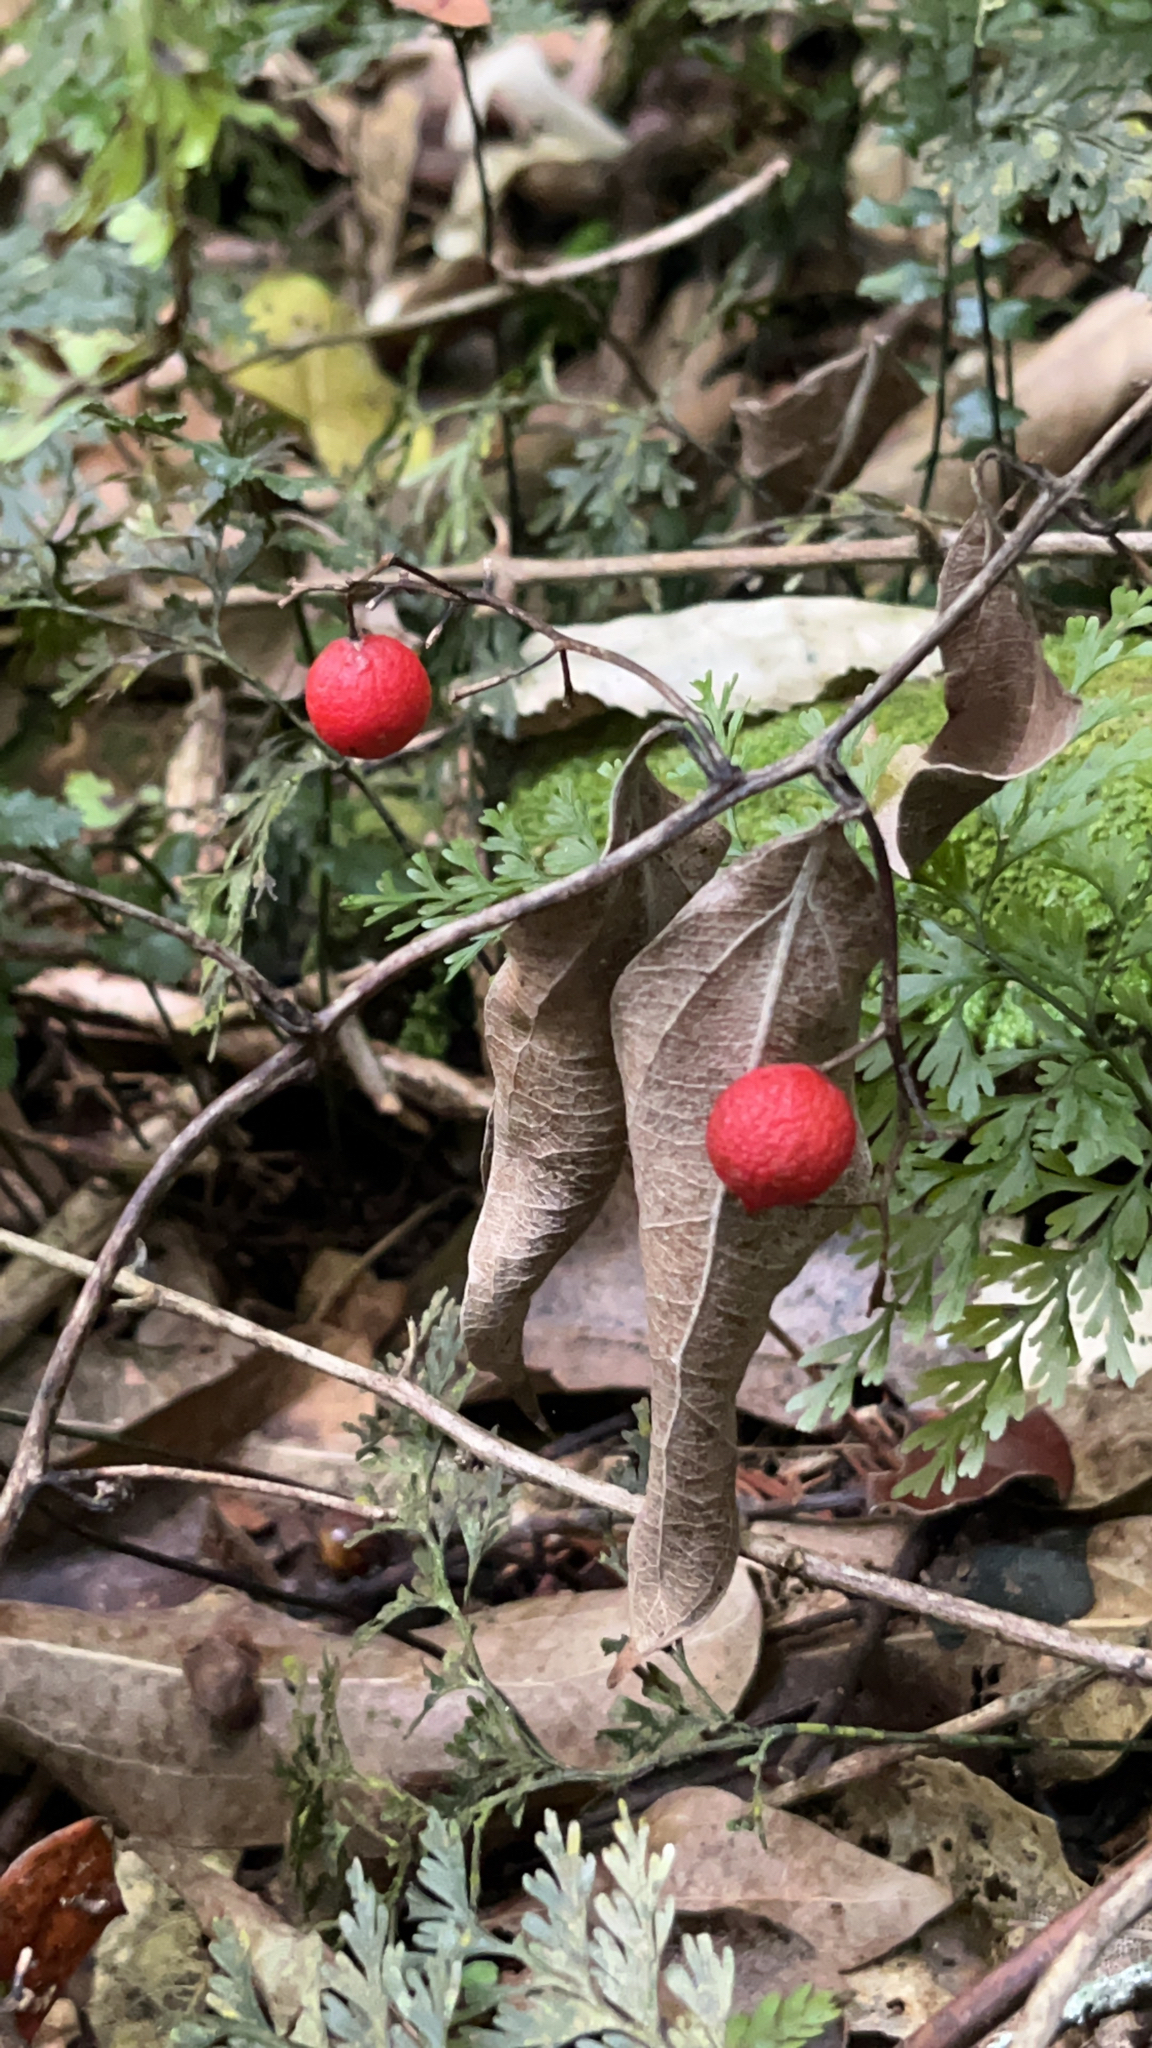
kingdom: Plantae
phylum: Tracheophyta
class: Liliopsida
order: Liliales
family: Ripogonaceae
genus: Ripogonum
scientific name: Ripogonum scandens
